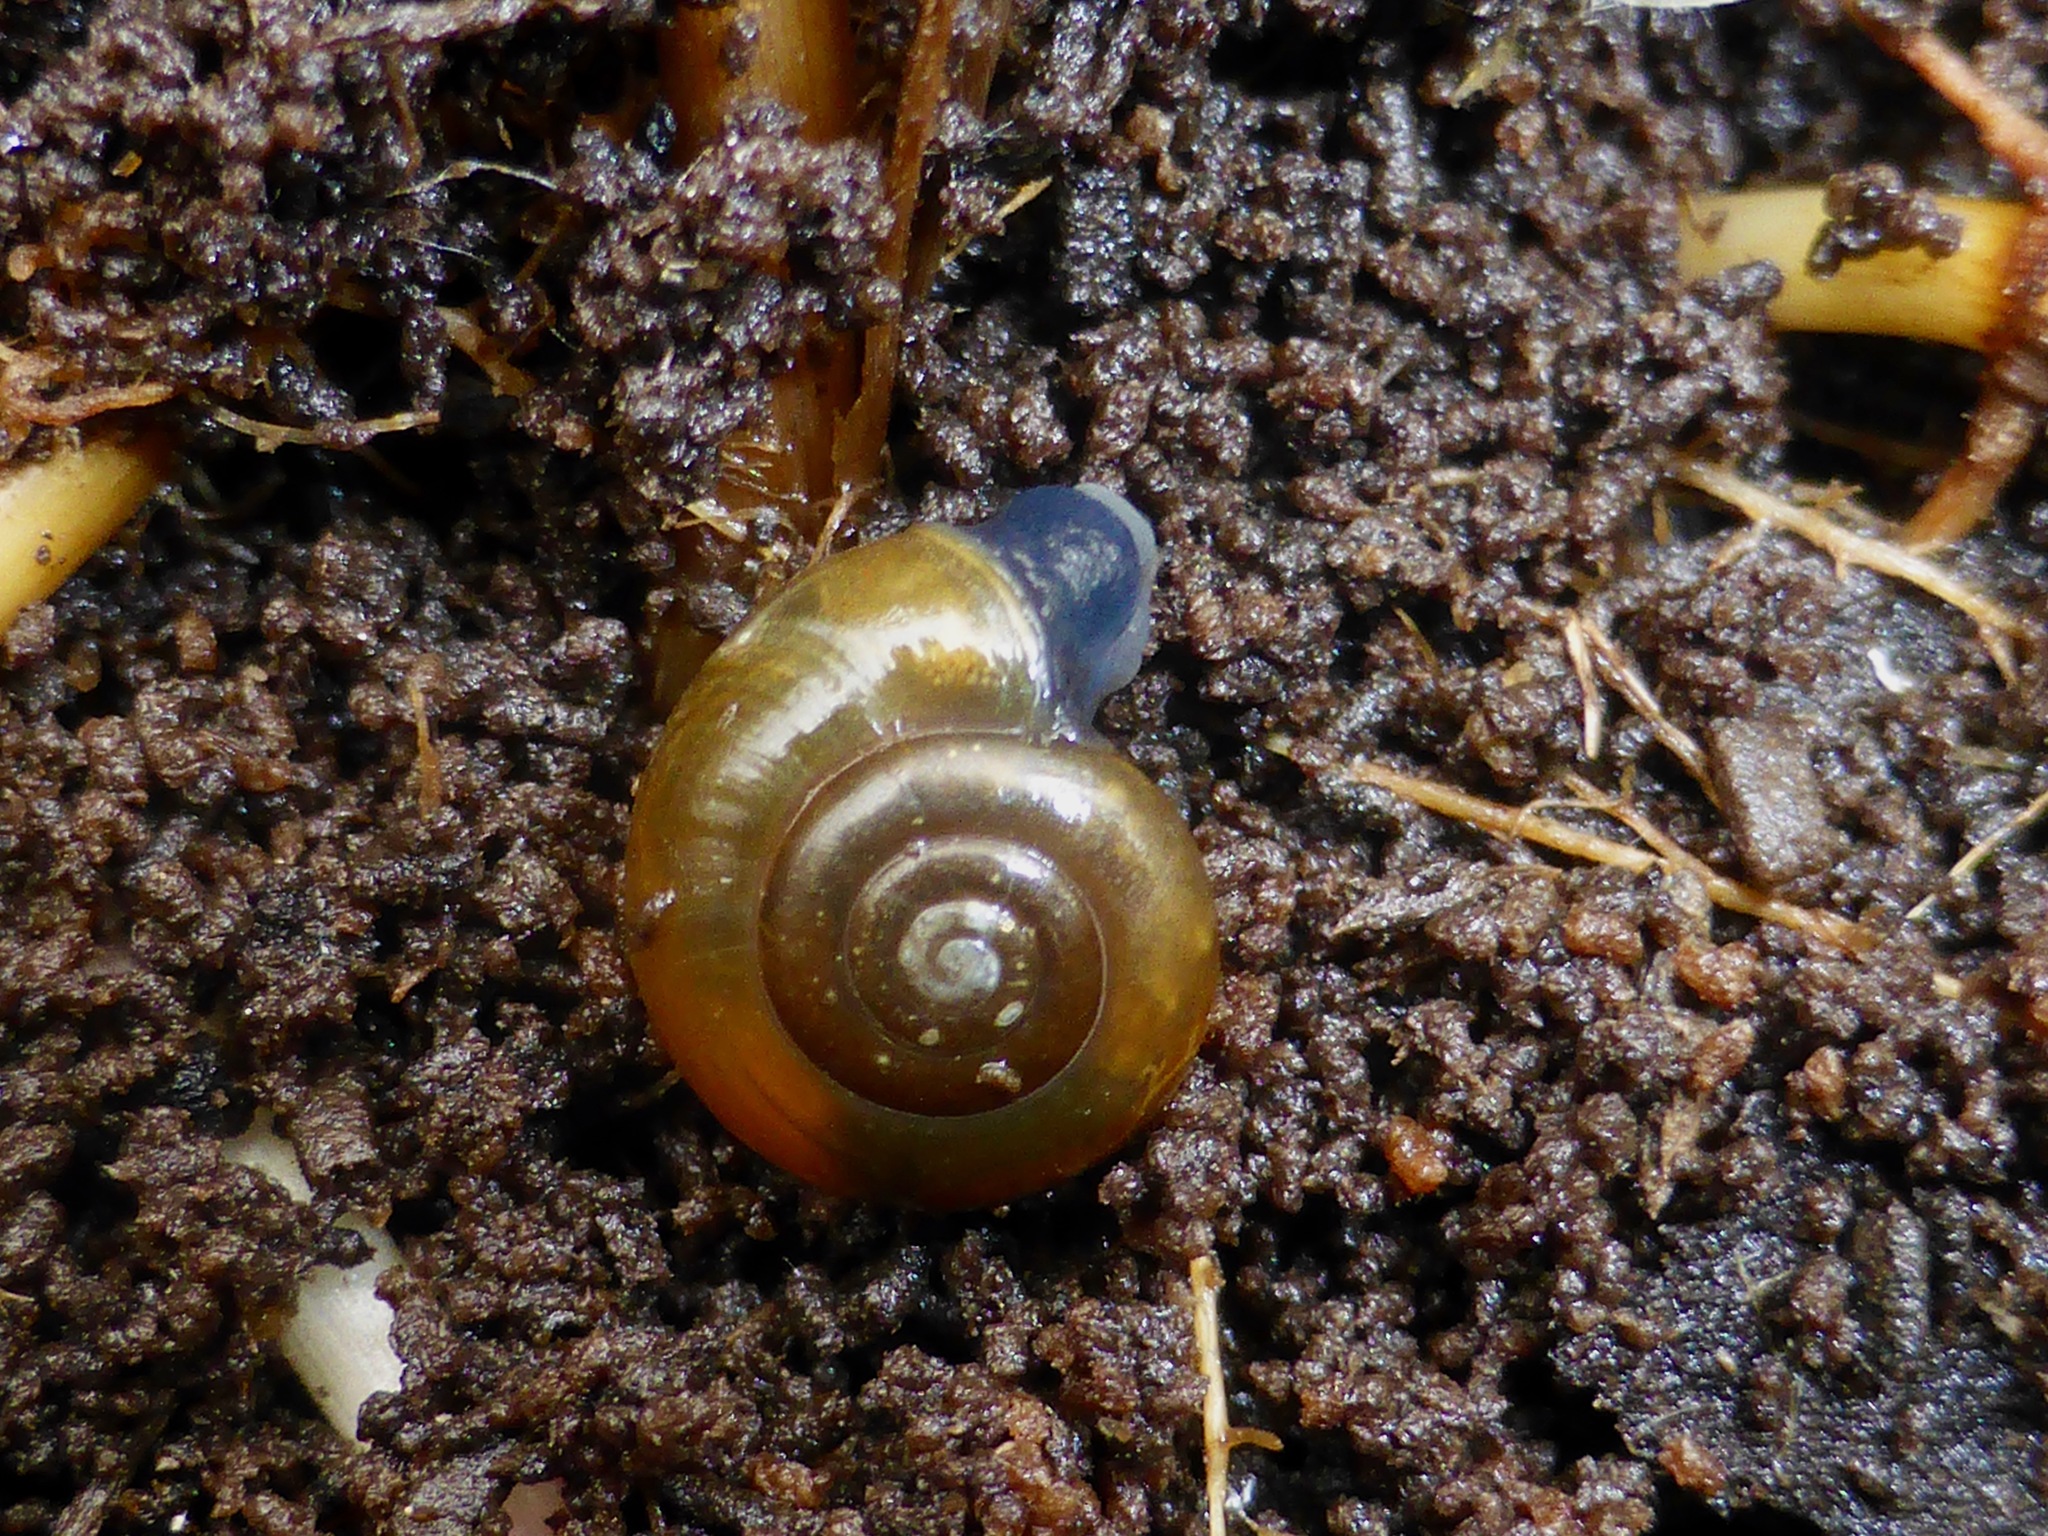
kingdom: Animalia
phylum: Mollusca
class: Gastropoda
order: Stylommatophora
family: Oxychilidae
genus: Oxychilus
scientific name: Oxychilus cellarius
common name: Cellar glass-snail
